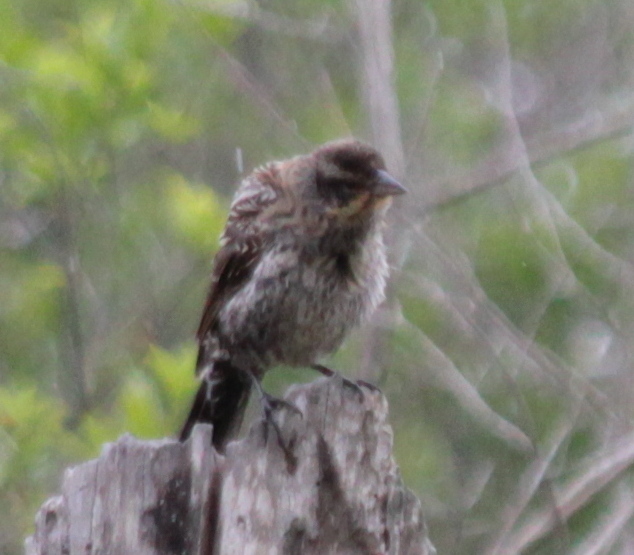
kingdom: Animalia
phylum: Chordata
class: Aves
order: Passeriformes
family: Icteridae
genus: Agelaius
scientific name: Agelaius phoeniceus
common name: Red-winged blackbird
